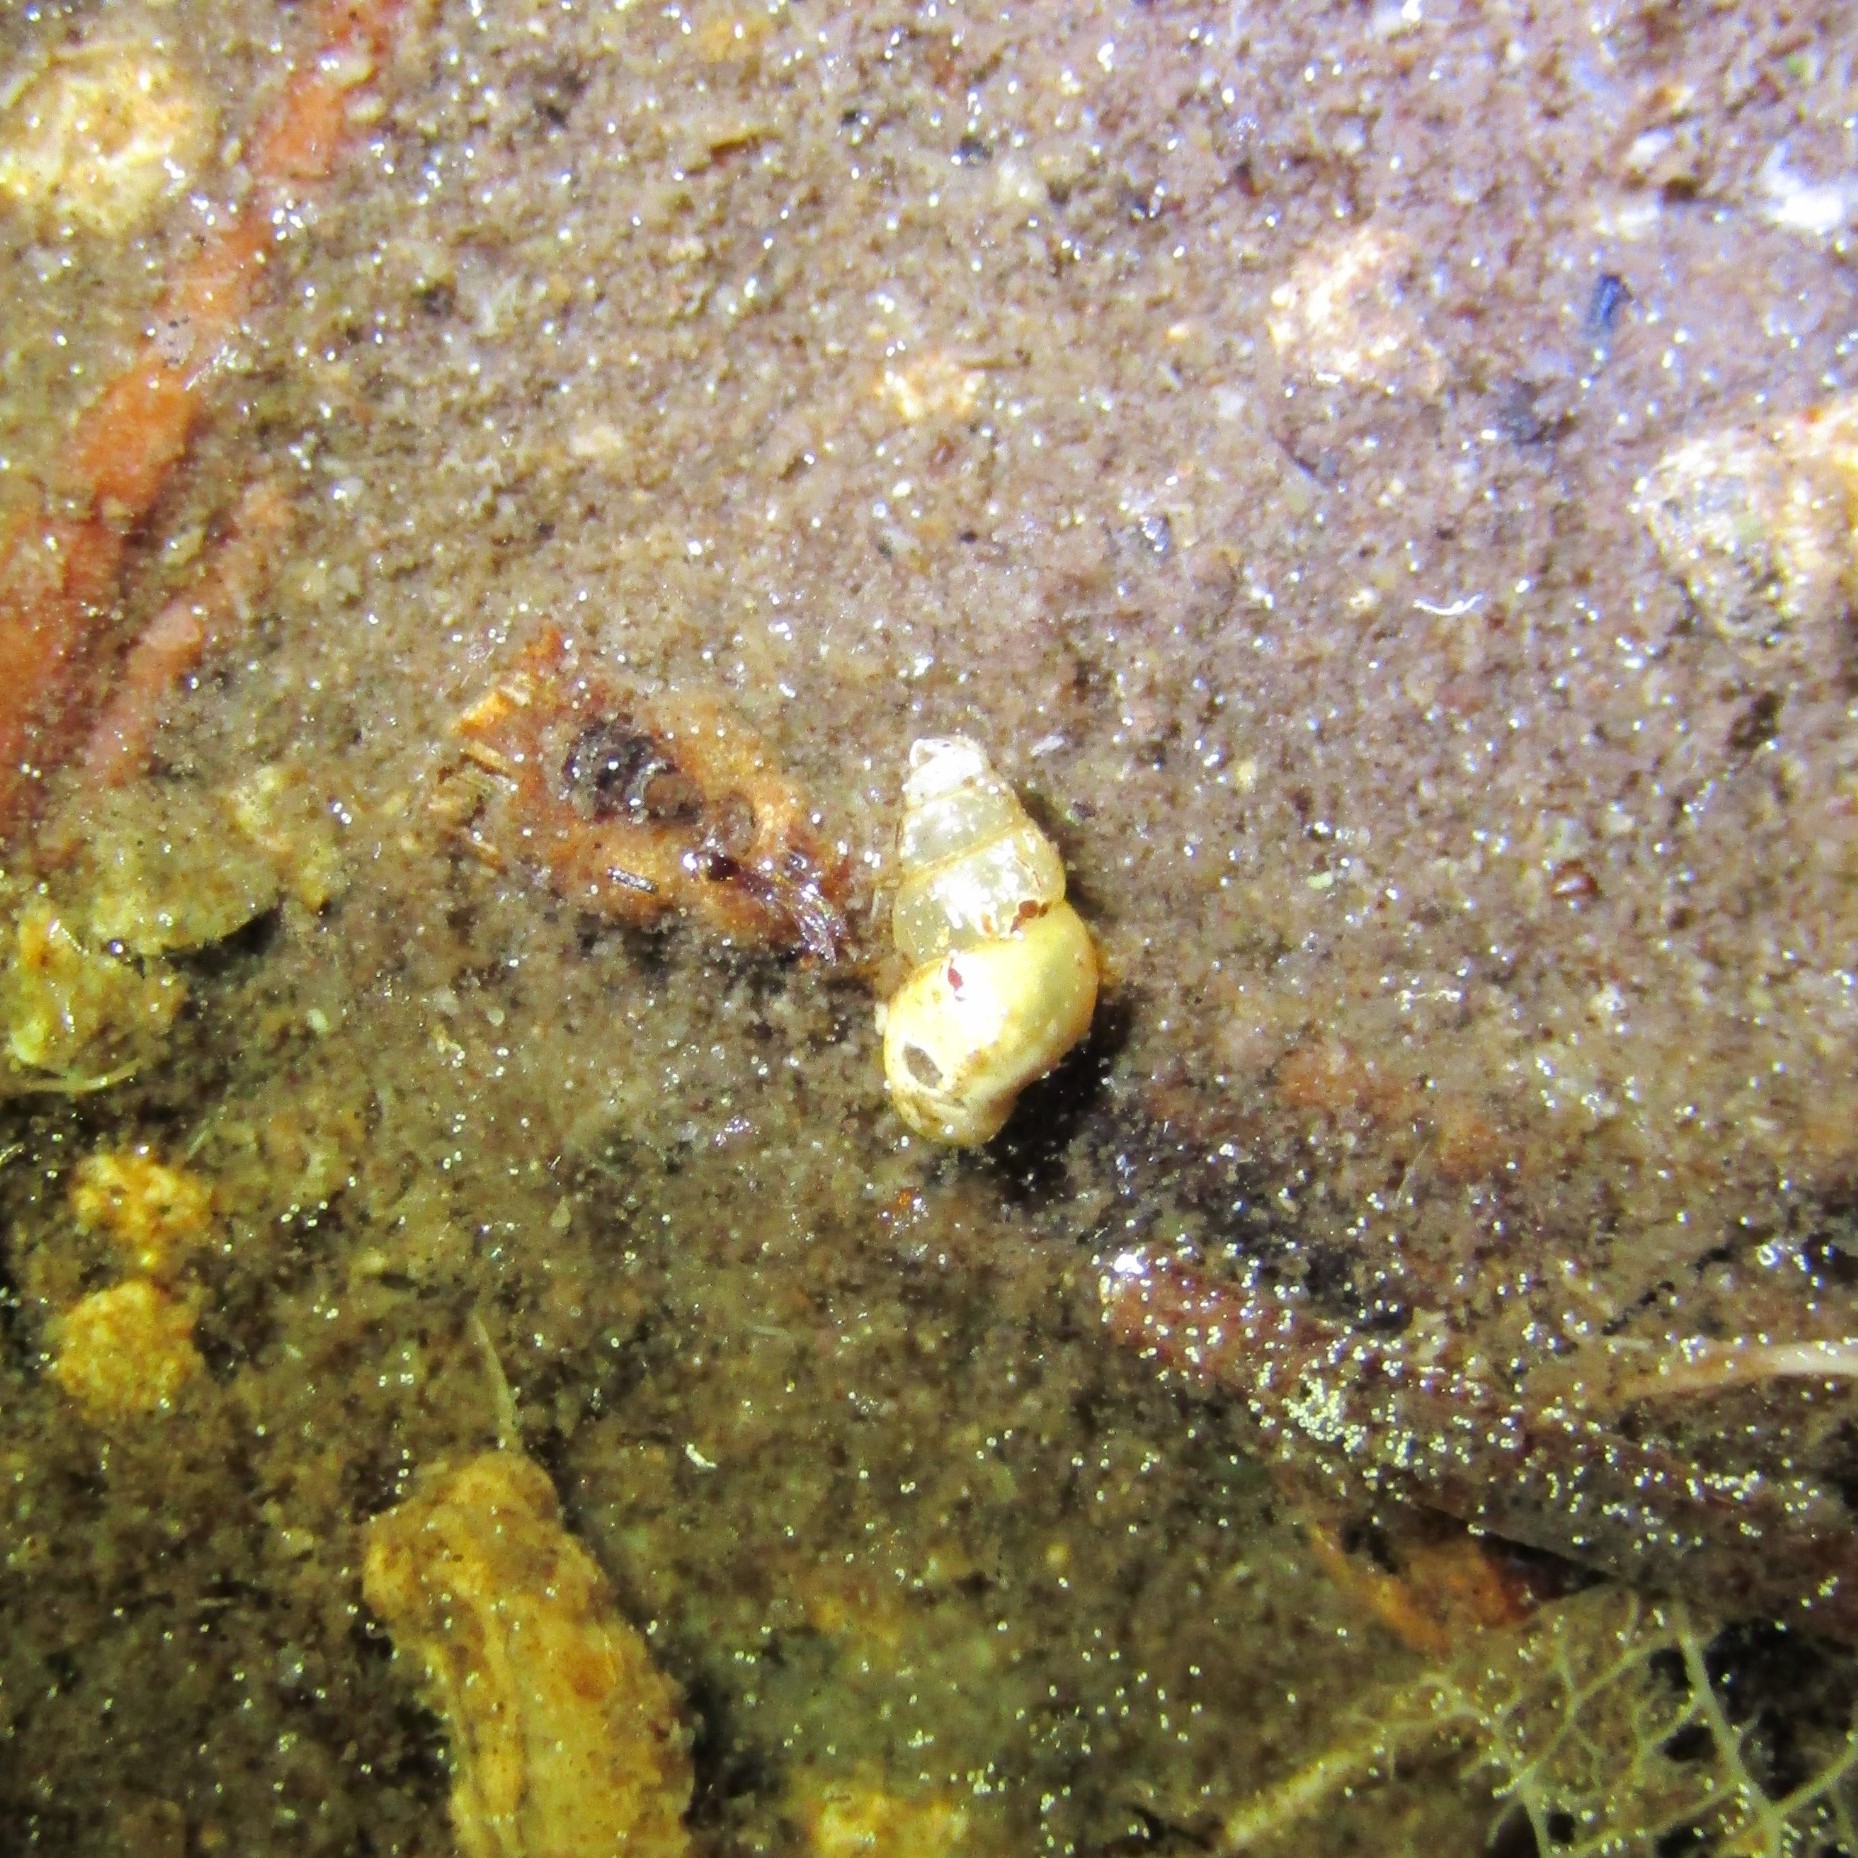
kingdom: Animalia
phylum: Mollusca
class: Gastropoda
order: Littorinimorpha
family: Tateidae
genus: Potamopyrgus
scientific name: Potamopyrgus antipodarum
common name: Jenkins' spire snail
